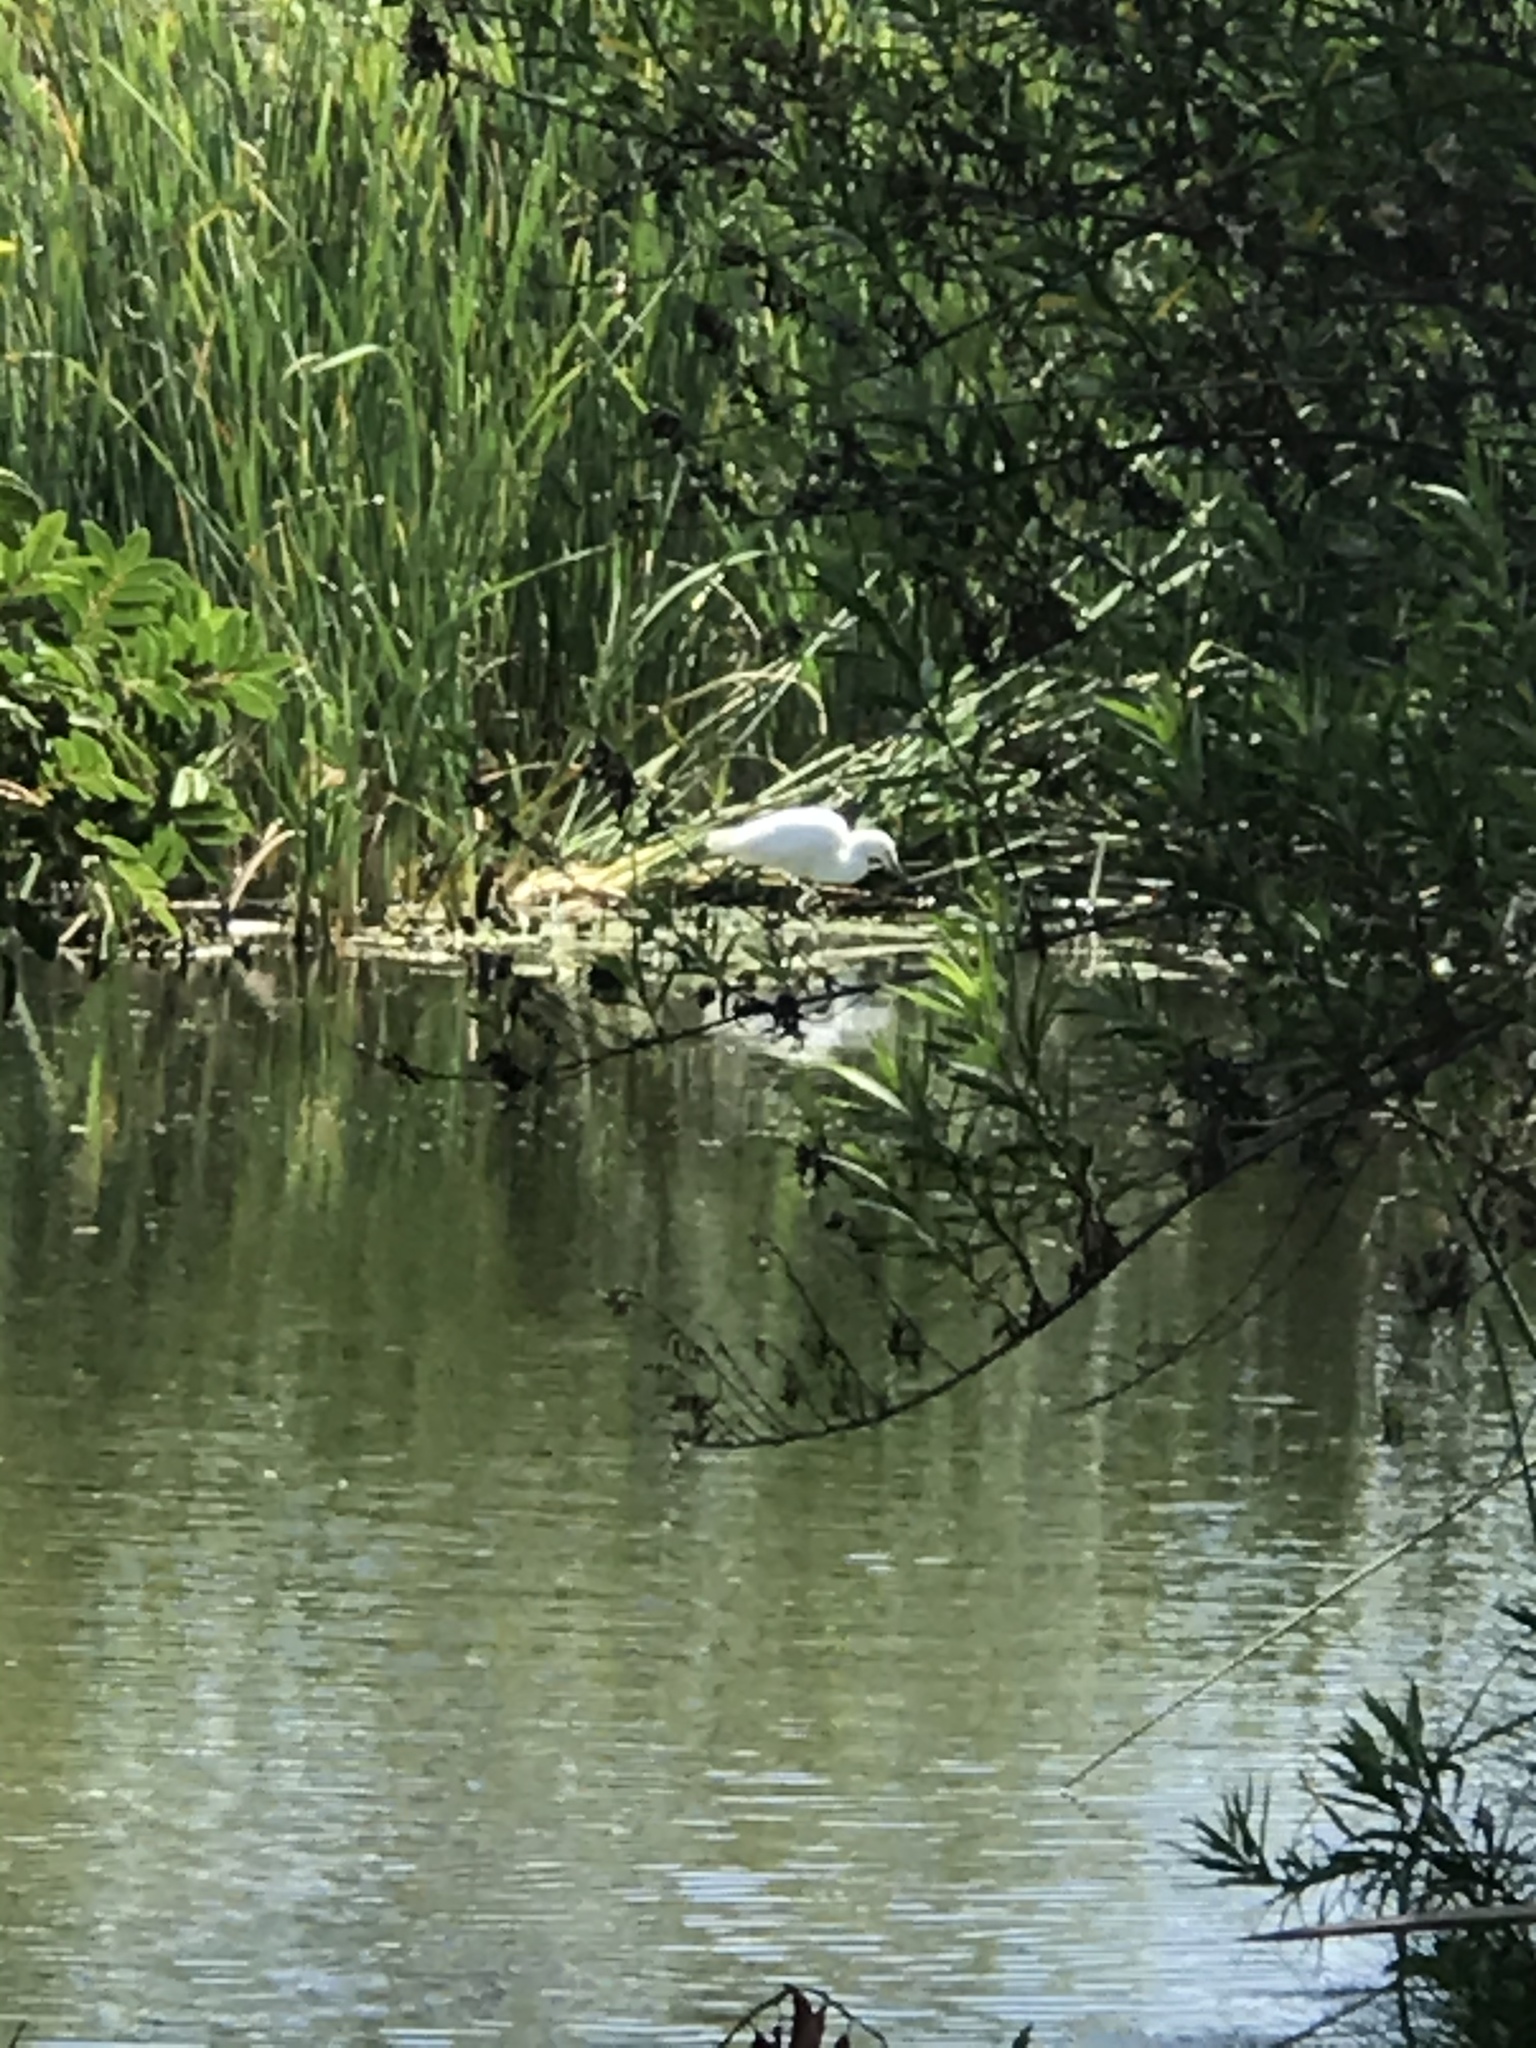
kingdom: Animalia
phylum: Chordata
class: Aves
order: Pelecaniformes
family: Ardeidae
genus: Egretta
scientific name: Egretta thula
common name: Snowy egret
